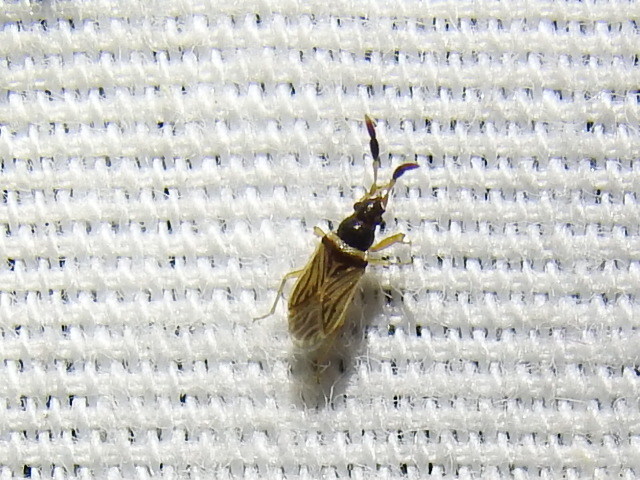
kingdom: Animalia
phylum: Arthropoda
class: Insecta
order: Hemiptera
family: Rhyparochromidae
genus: Ptochiomera
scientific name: Ptochiomera nodosa
